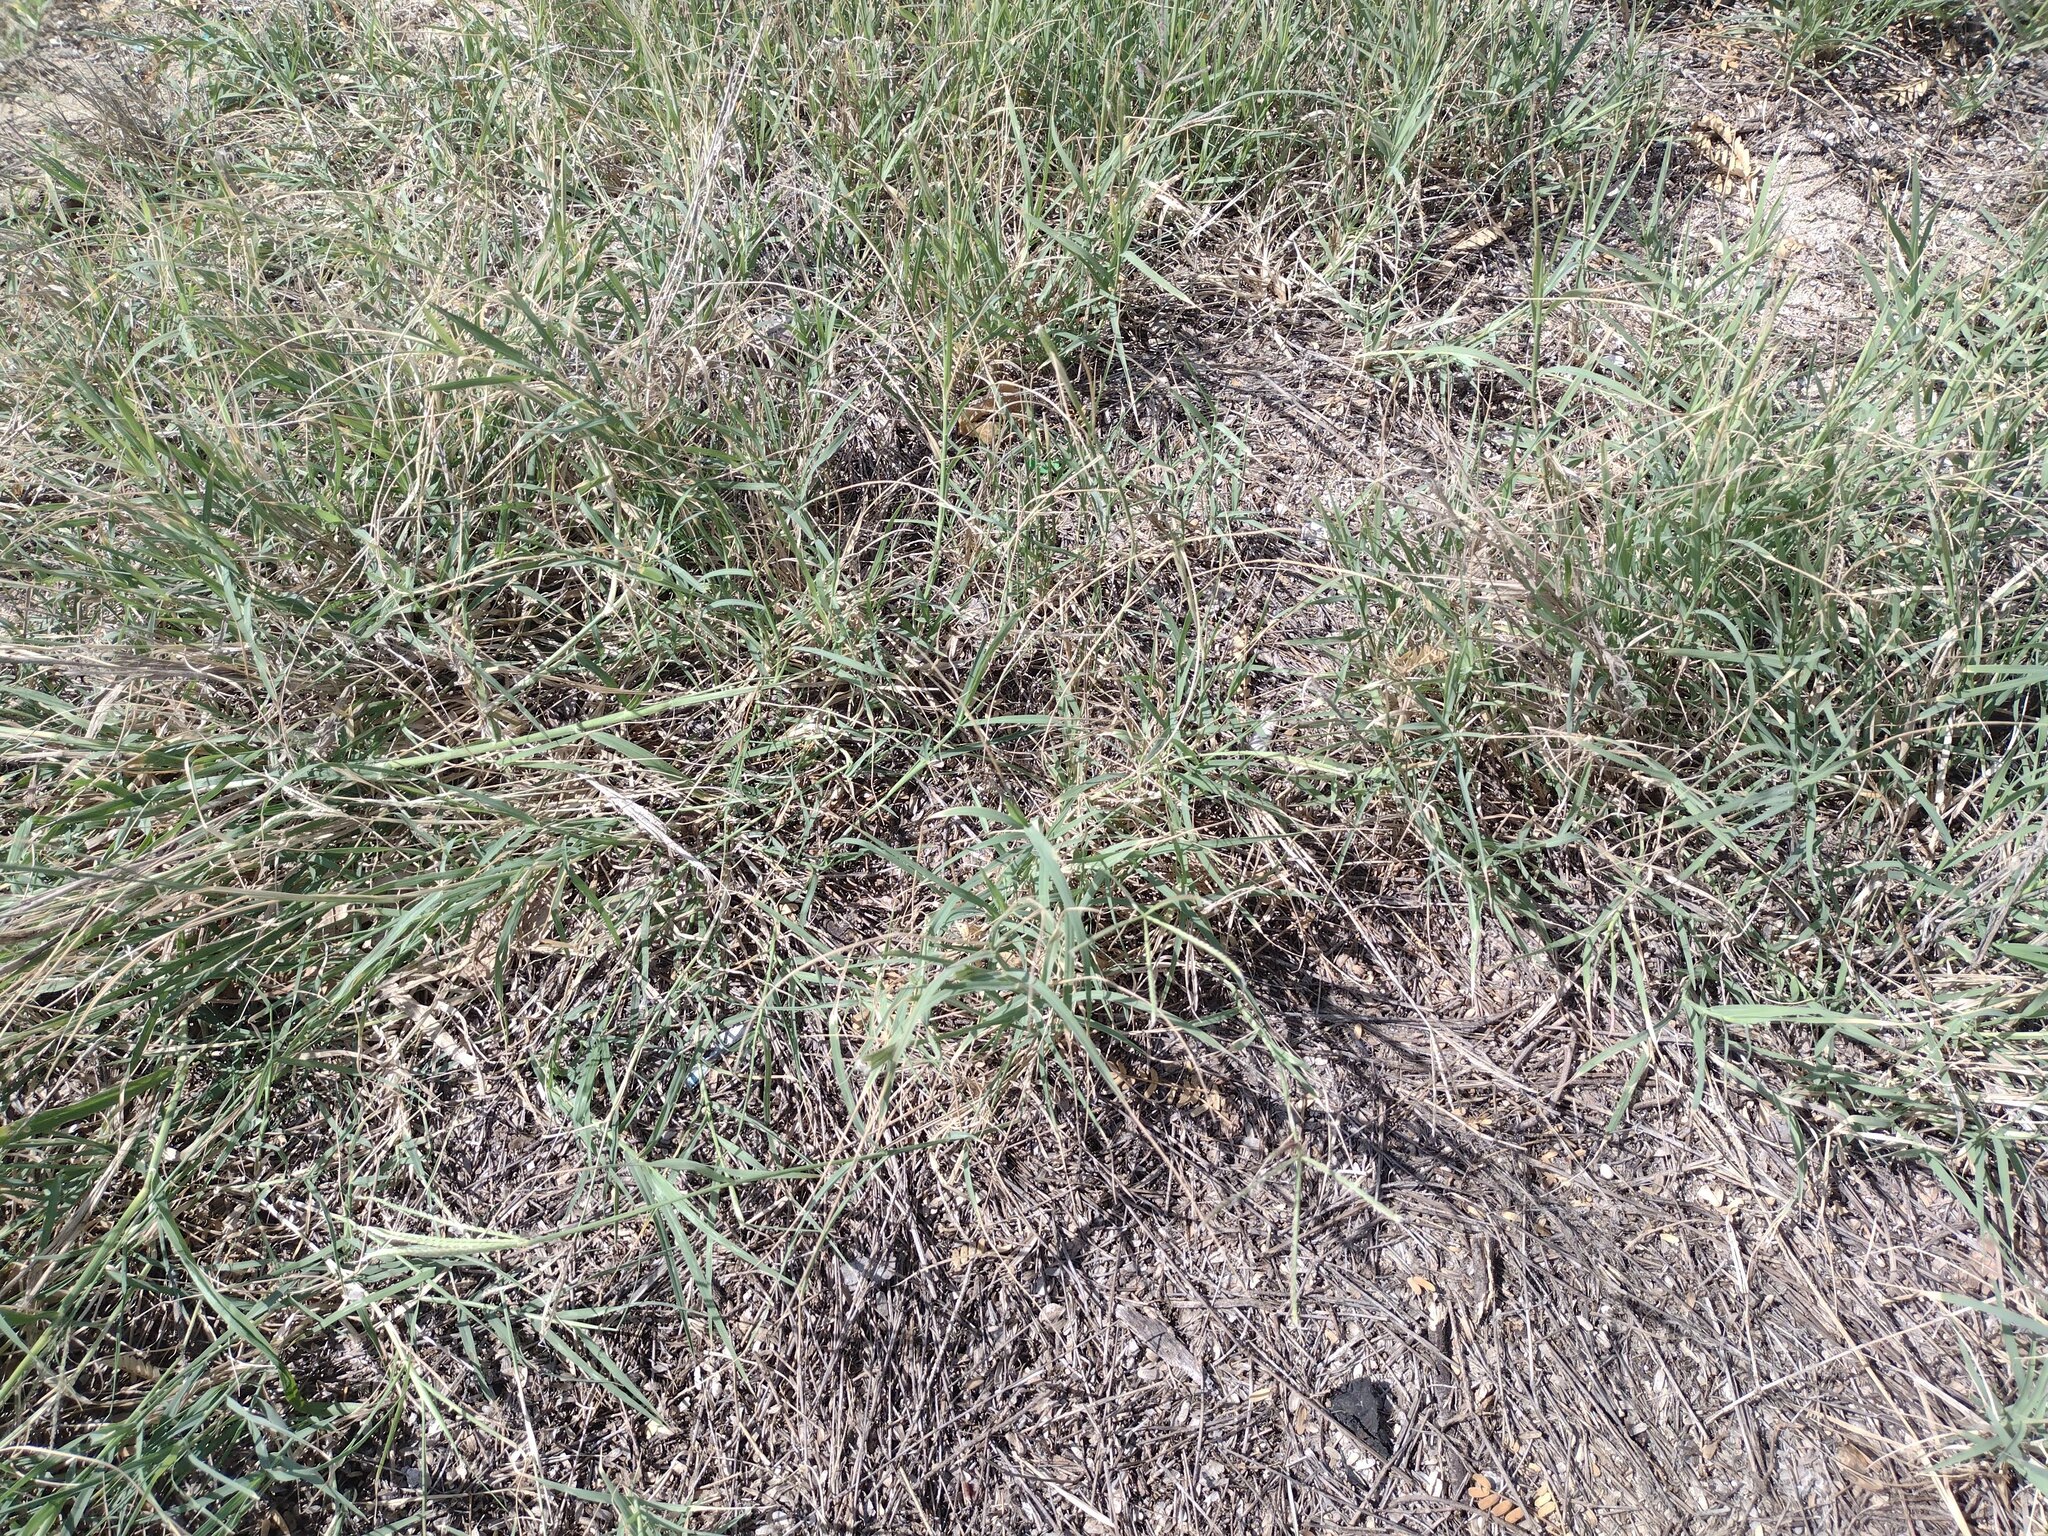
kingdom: Plantae
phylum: Tracheophyta
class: Liliopsida
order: Poales
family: Poaceae
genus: Cynodon
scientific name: Cynodon dactylon
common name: Bermuda grass
